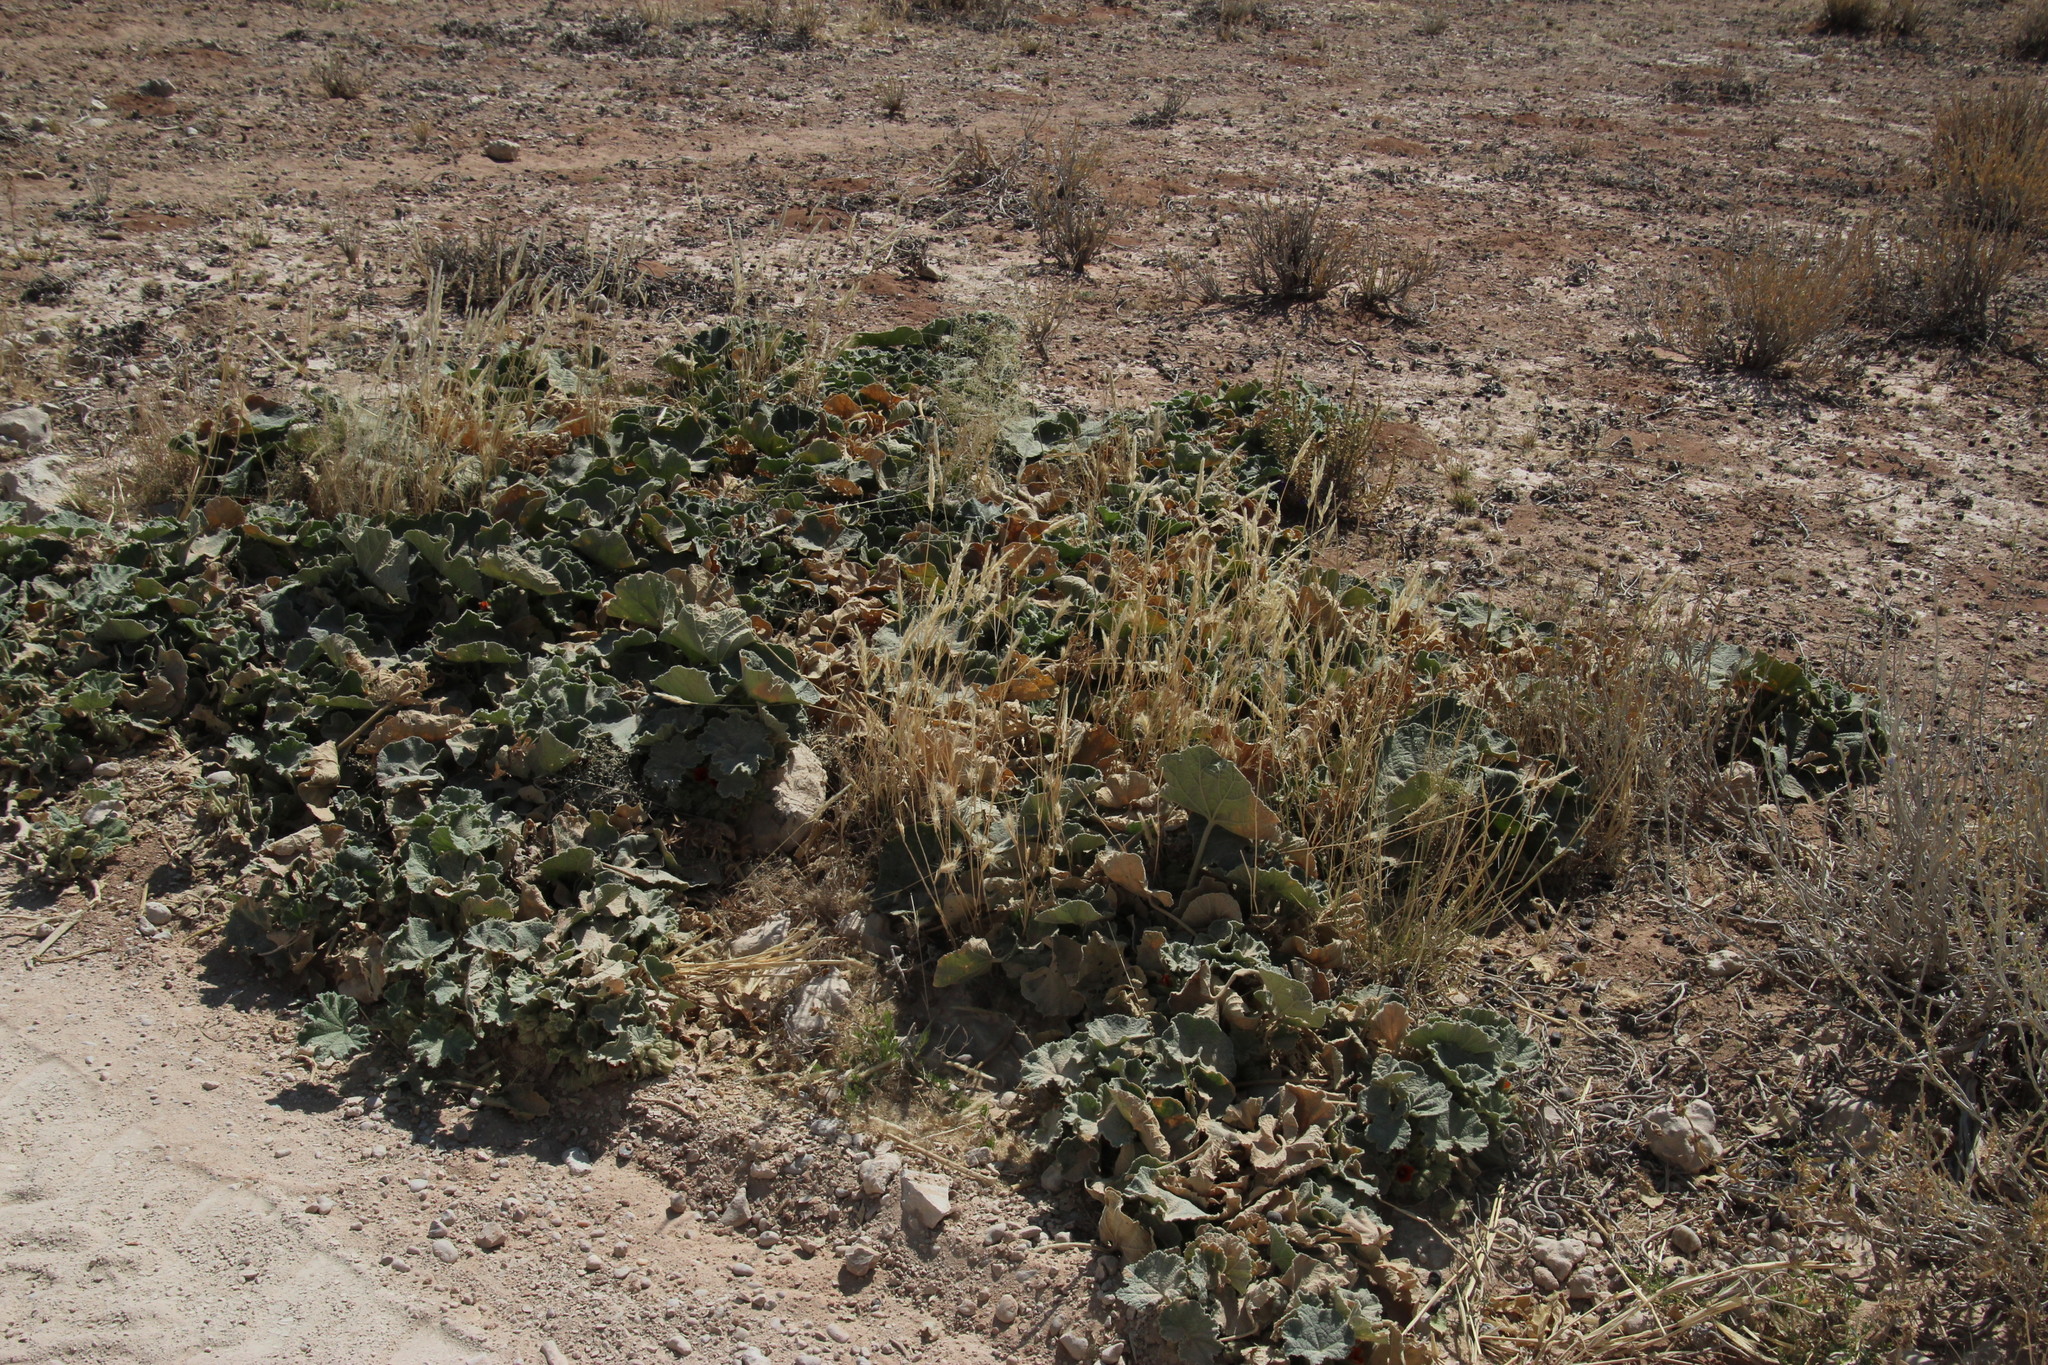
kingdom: Plantae
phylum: Tracheophyta
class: Magnoliopsida
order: Malvales
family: Malvaceae
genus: Radyera
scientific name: Radyera urens
